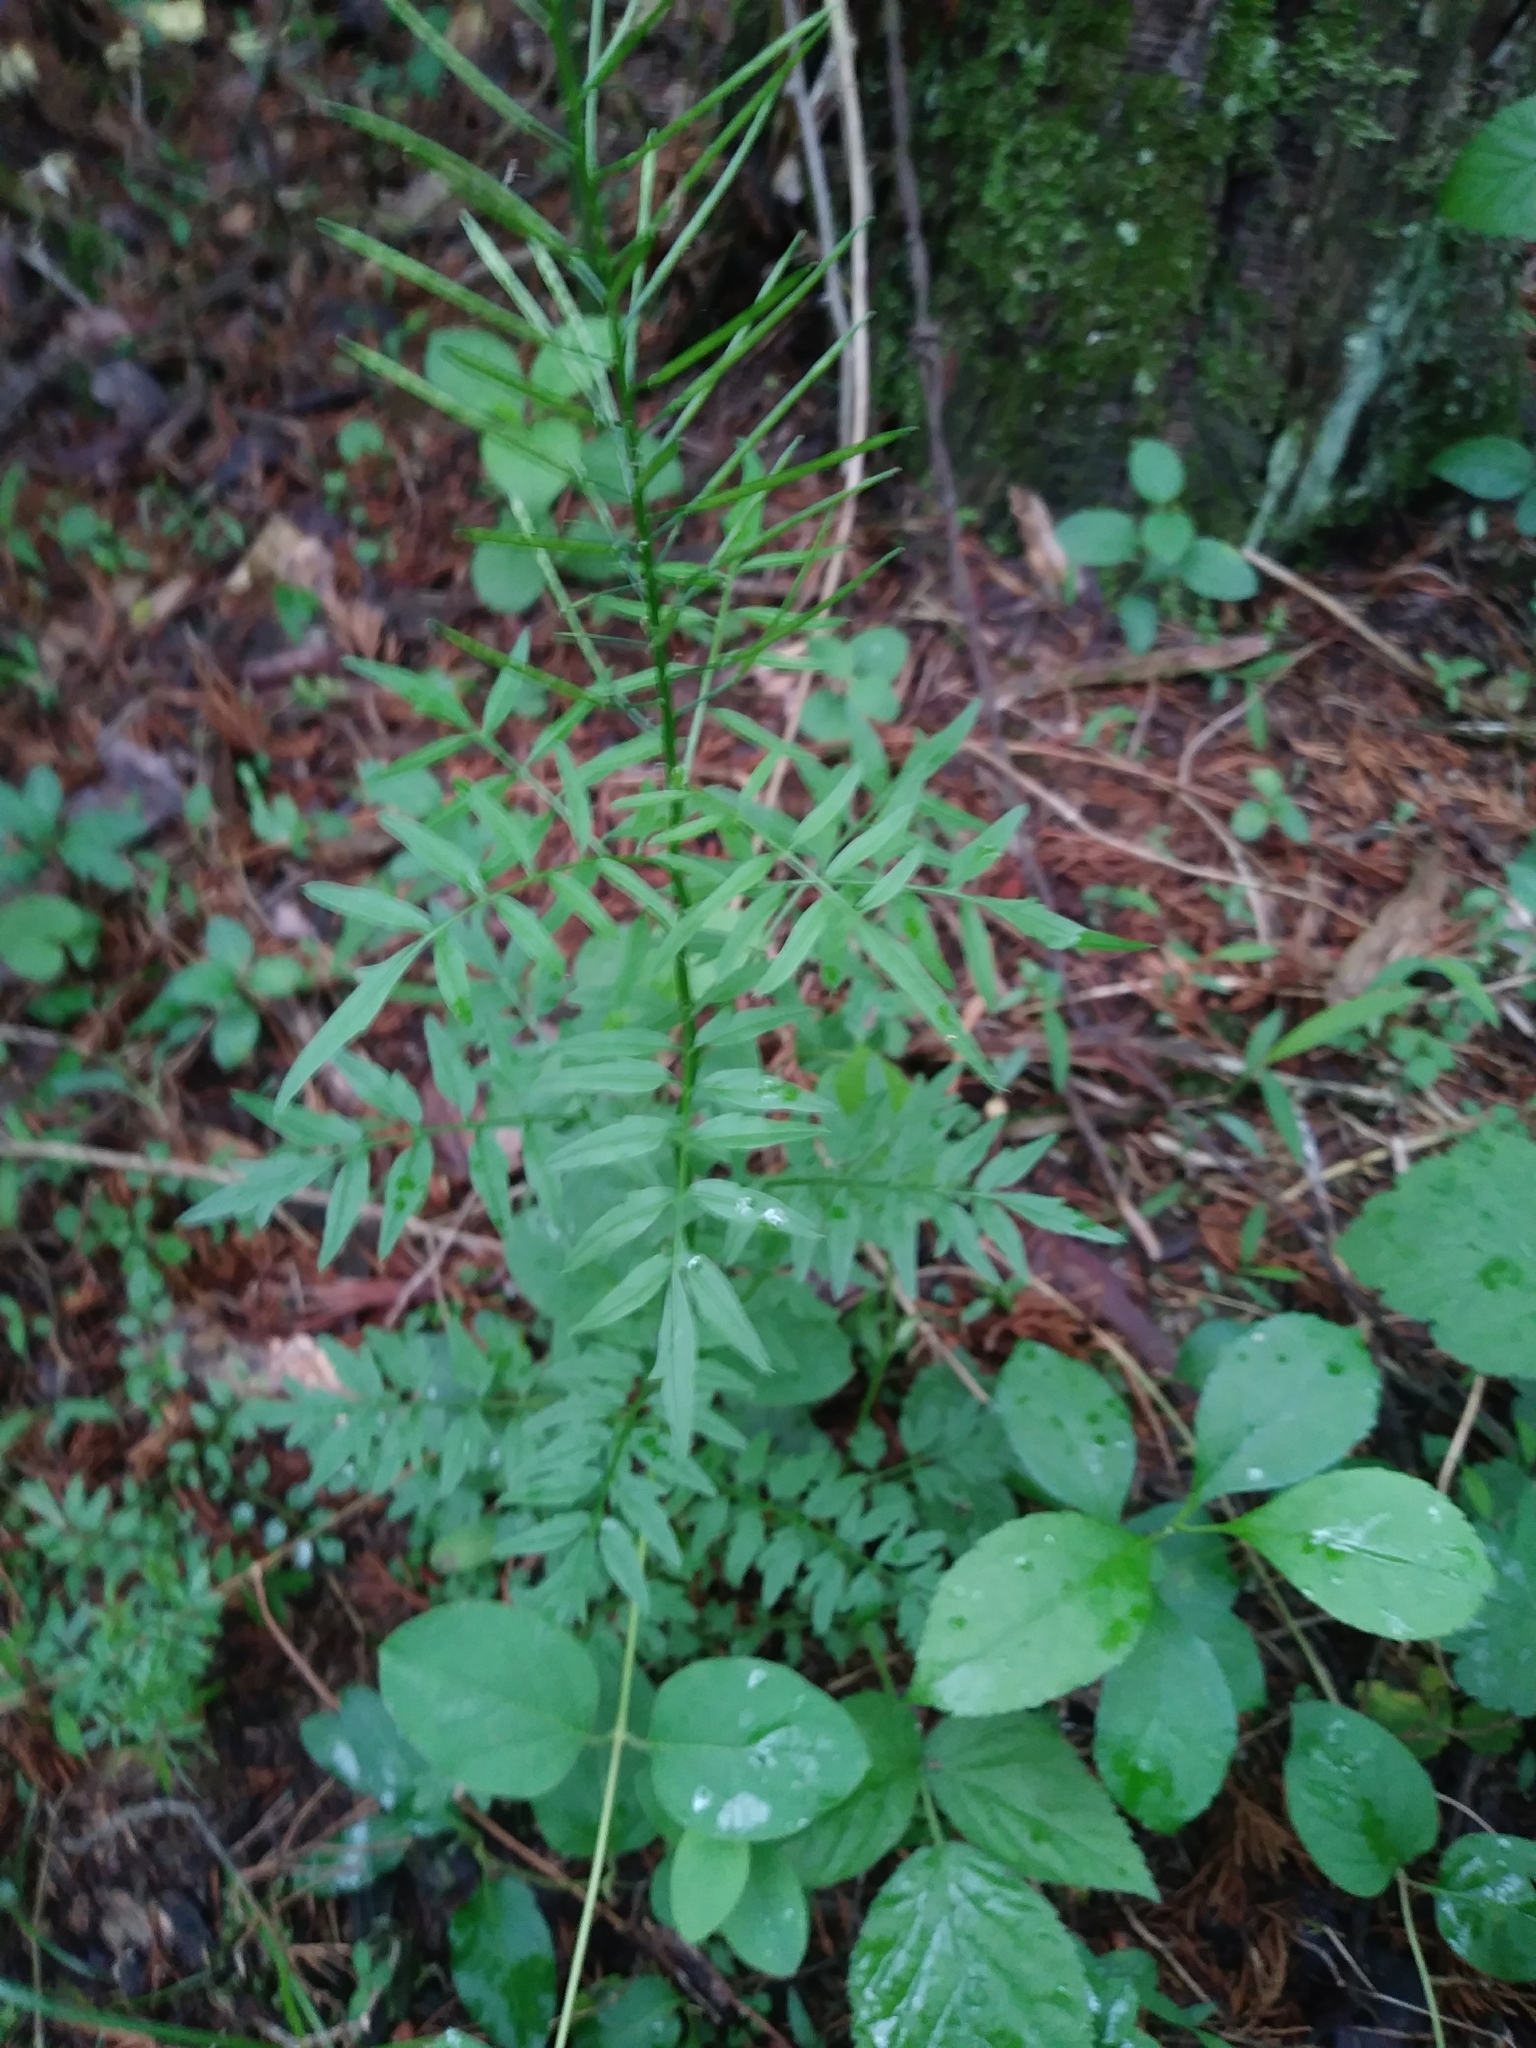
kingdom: Plantae
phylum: Tracheophyta
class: Magnoliopsida
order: Brassicales
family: Brassicaceae
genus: Cardamine
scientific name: Cardamine impatiens
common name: Narrow-leaved bitter-cress
